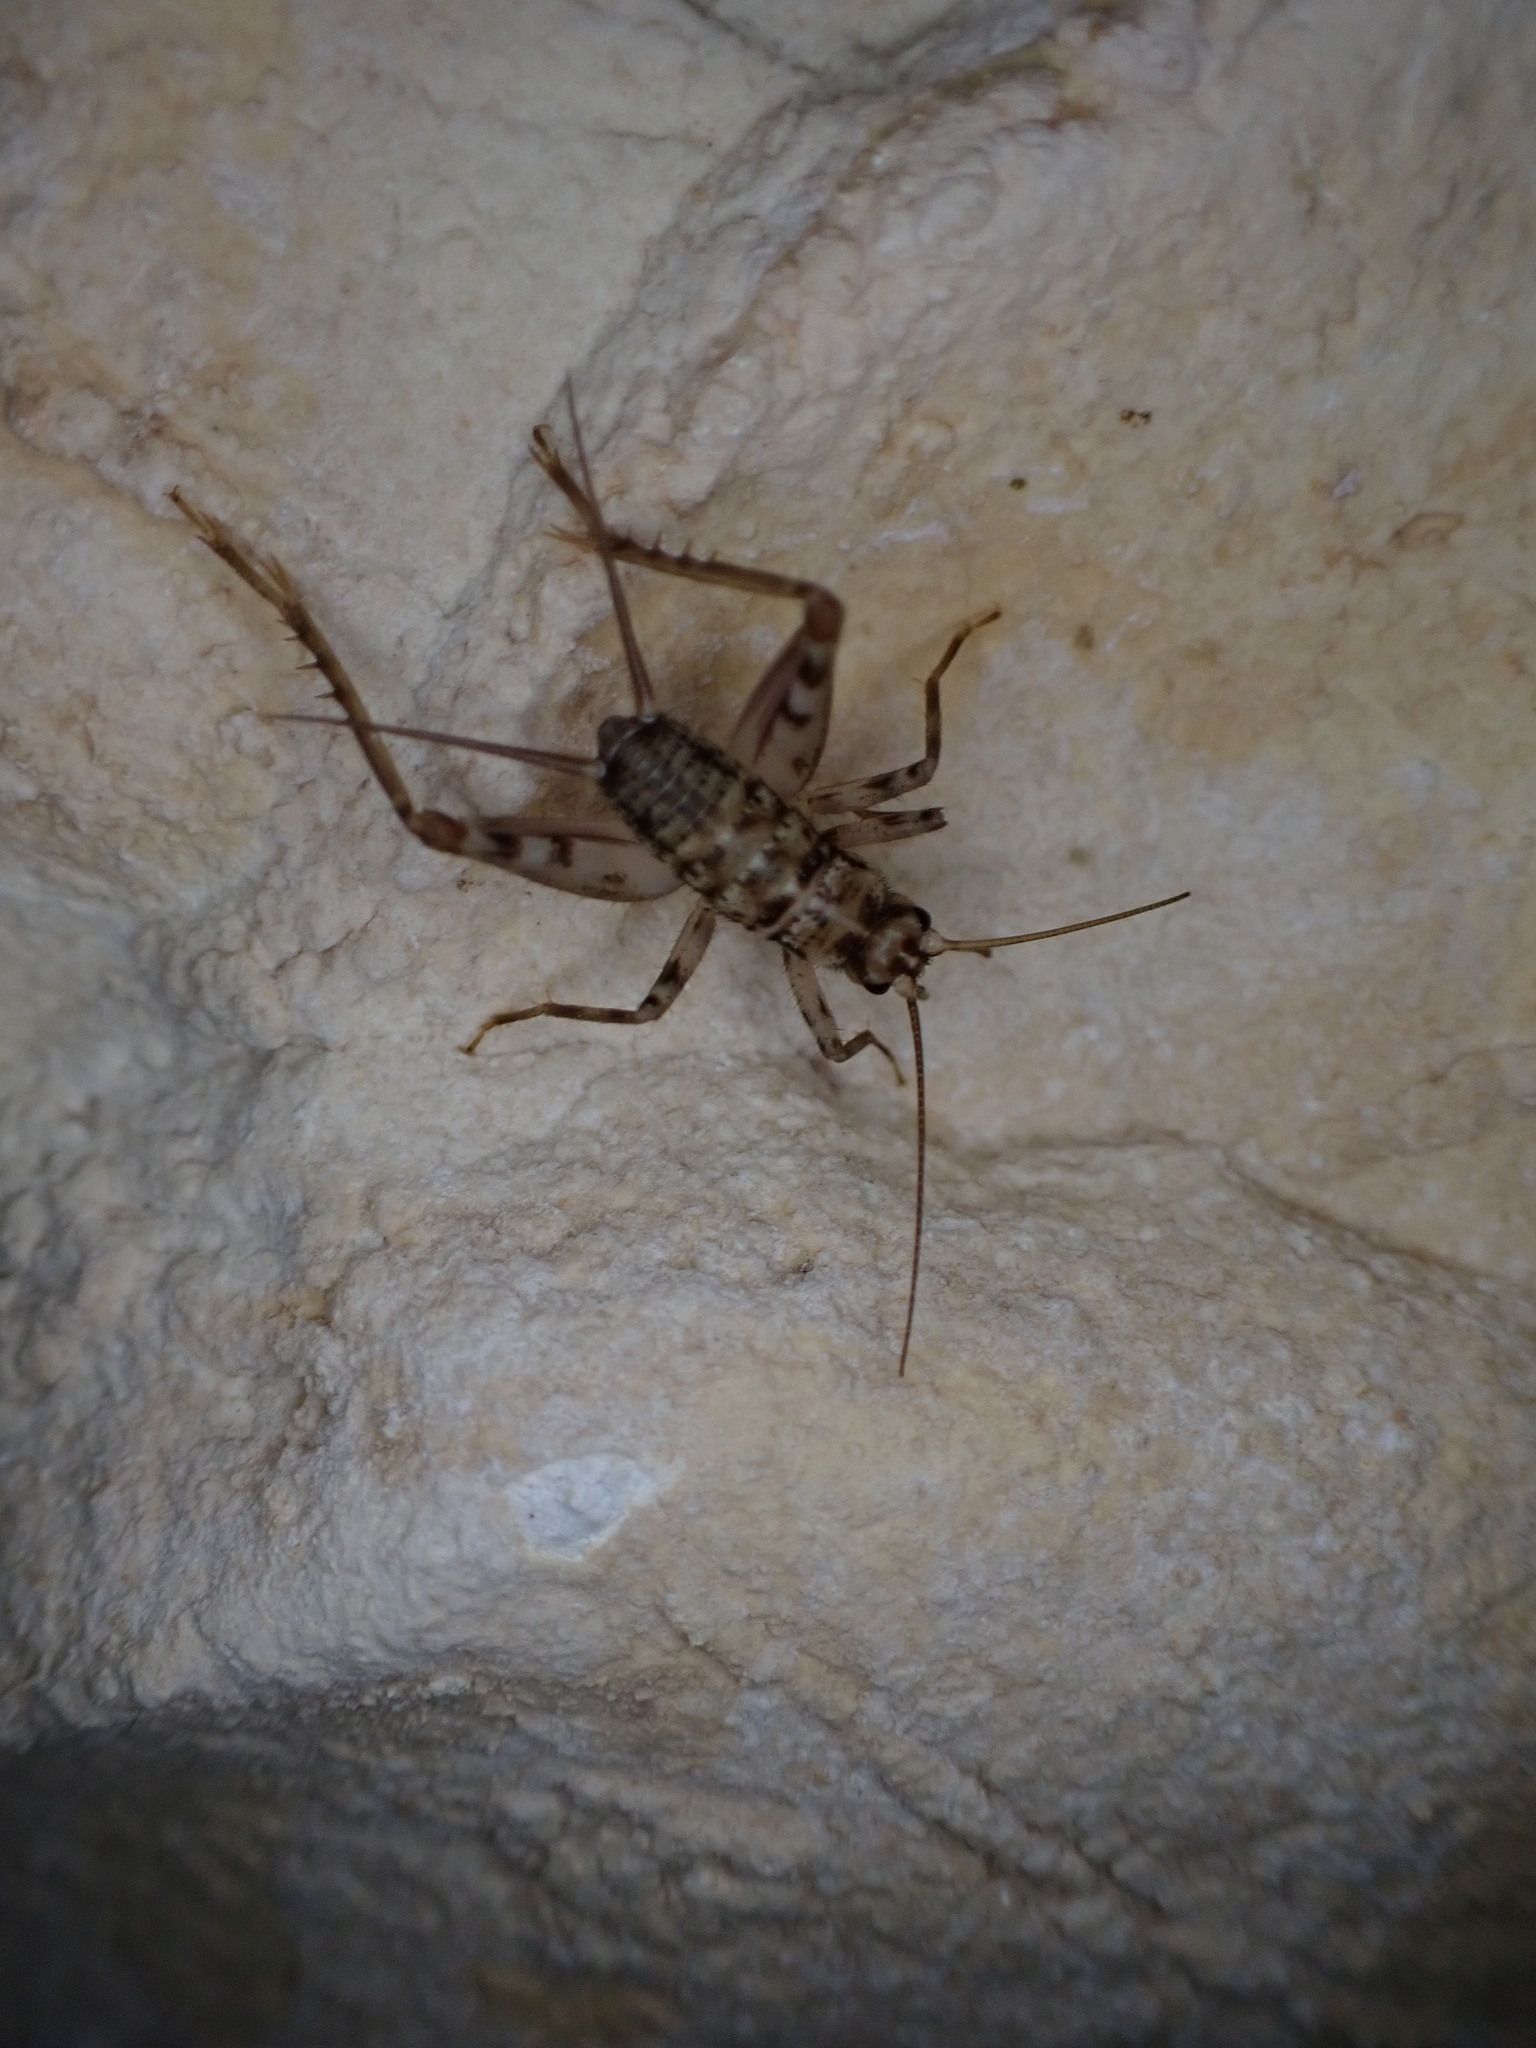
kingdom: Animalia
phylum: Arthropoda
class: Insecta
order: Orthoptera
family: Gryllidae
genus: Gryllomorpha
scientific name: Gryllomorpha dalmatina
